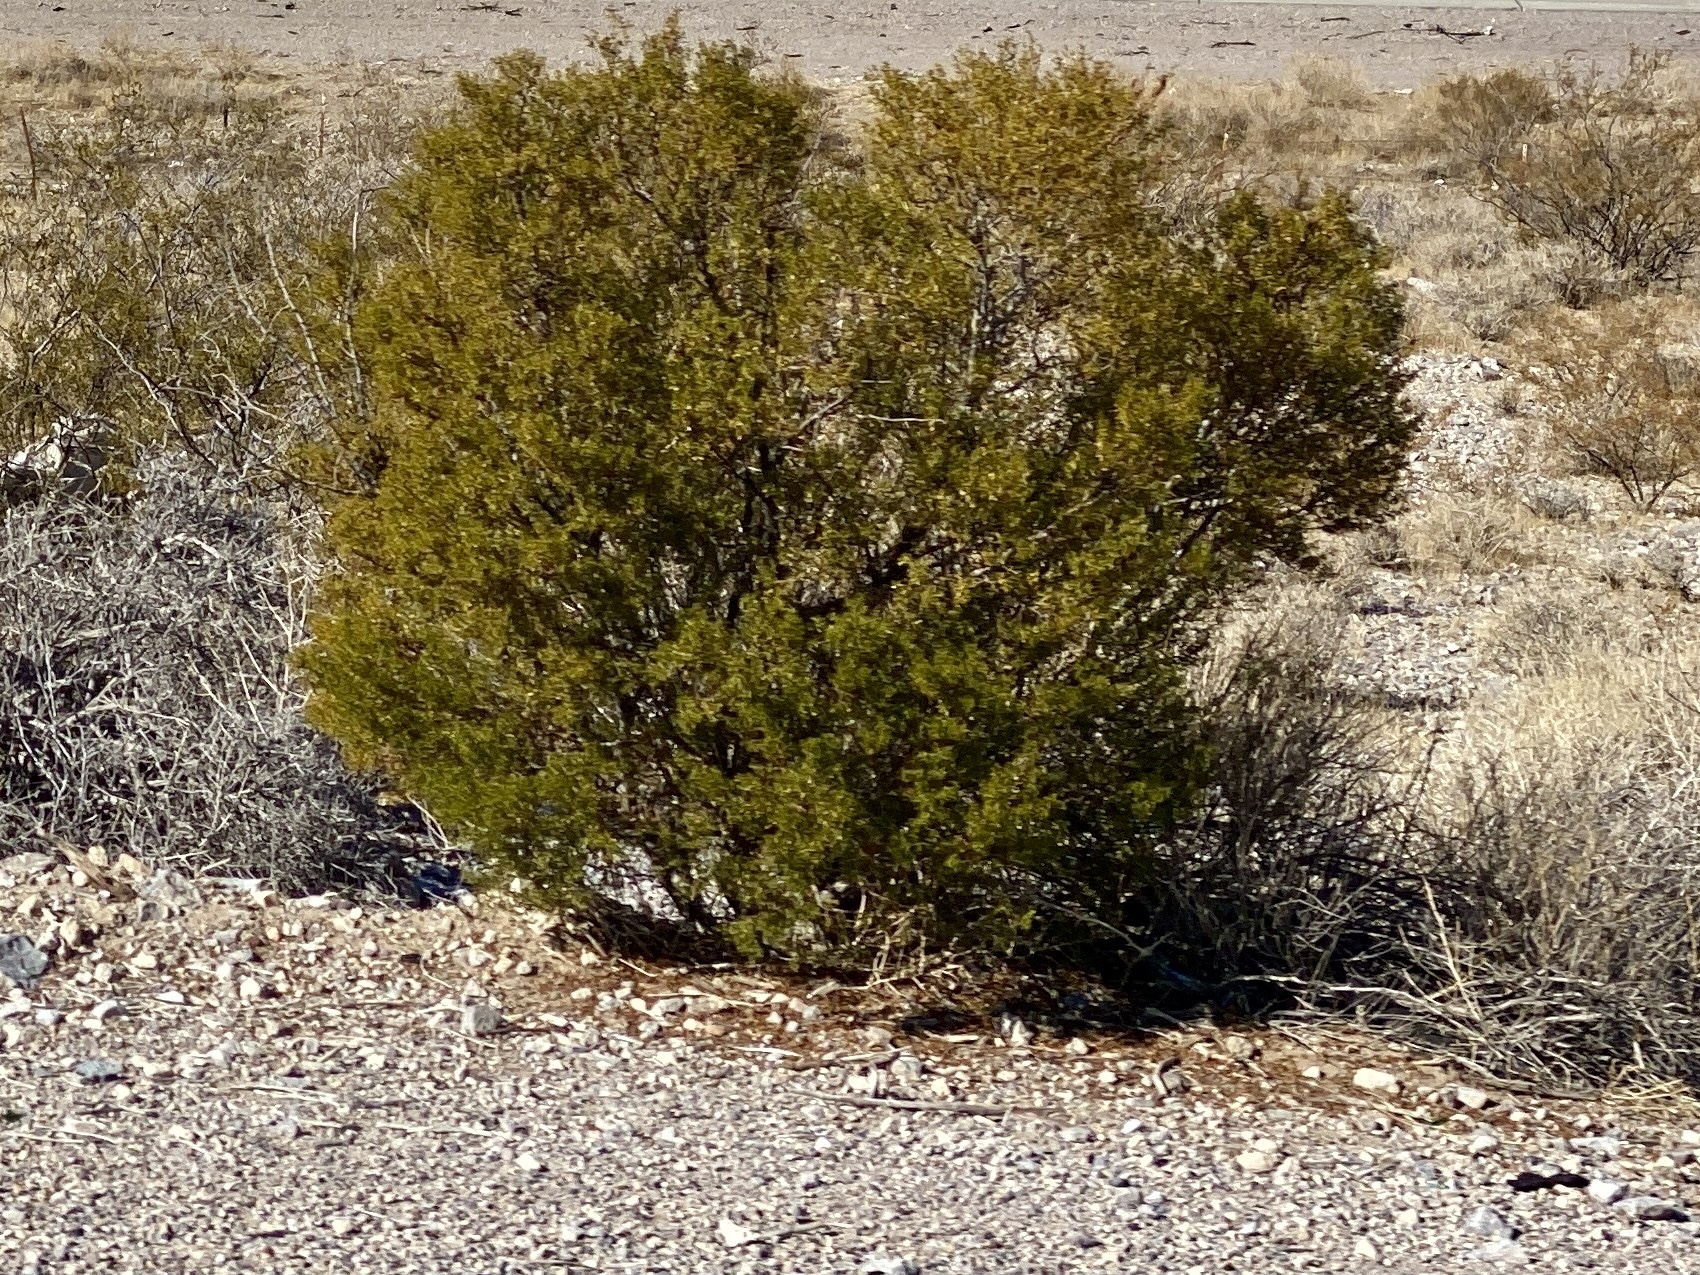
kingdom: Plantae
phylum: Tracheophyta
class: Magnoliopsida
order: Zygophyllales
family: Zygophyllaceae
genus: Larrea
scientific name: Larrea tridentata
